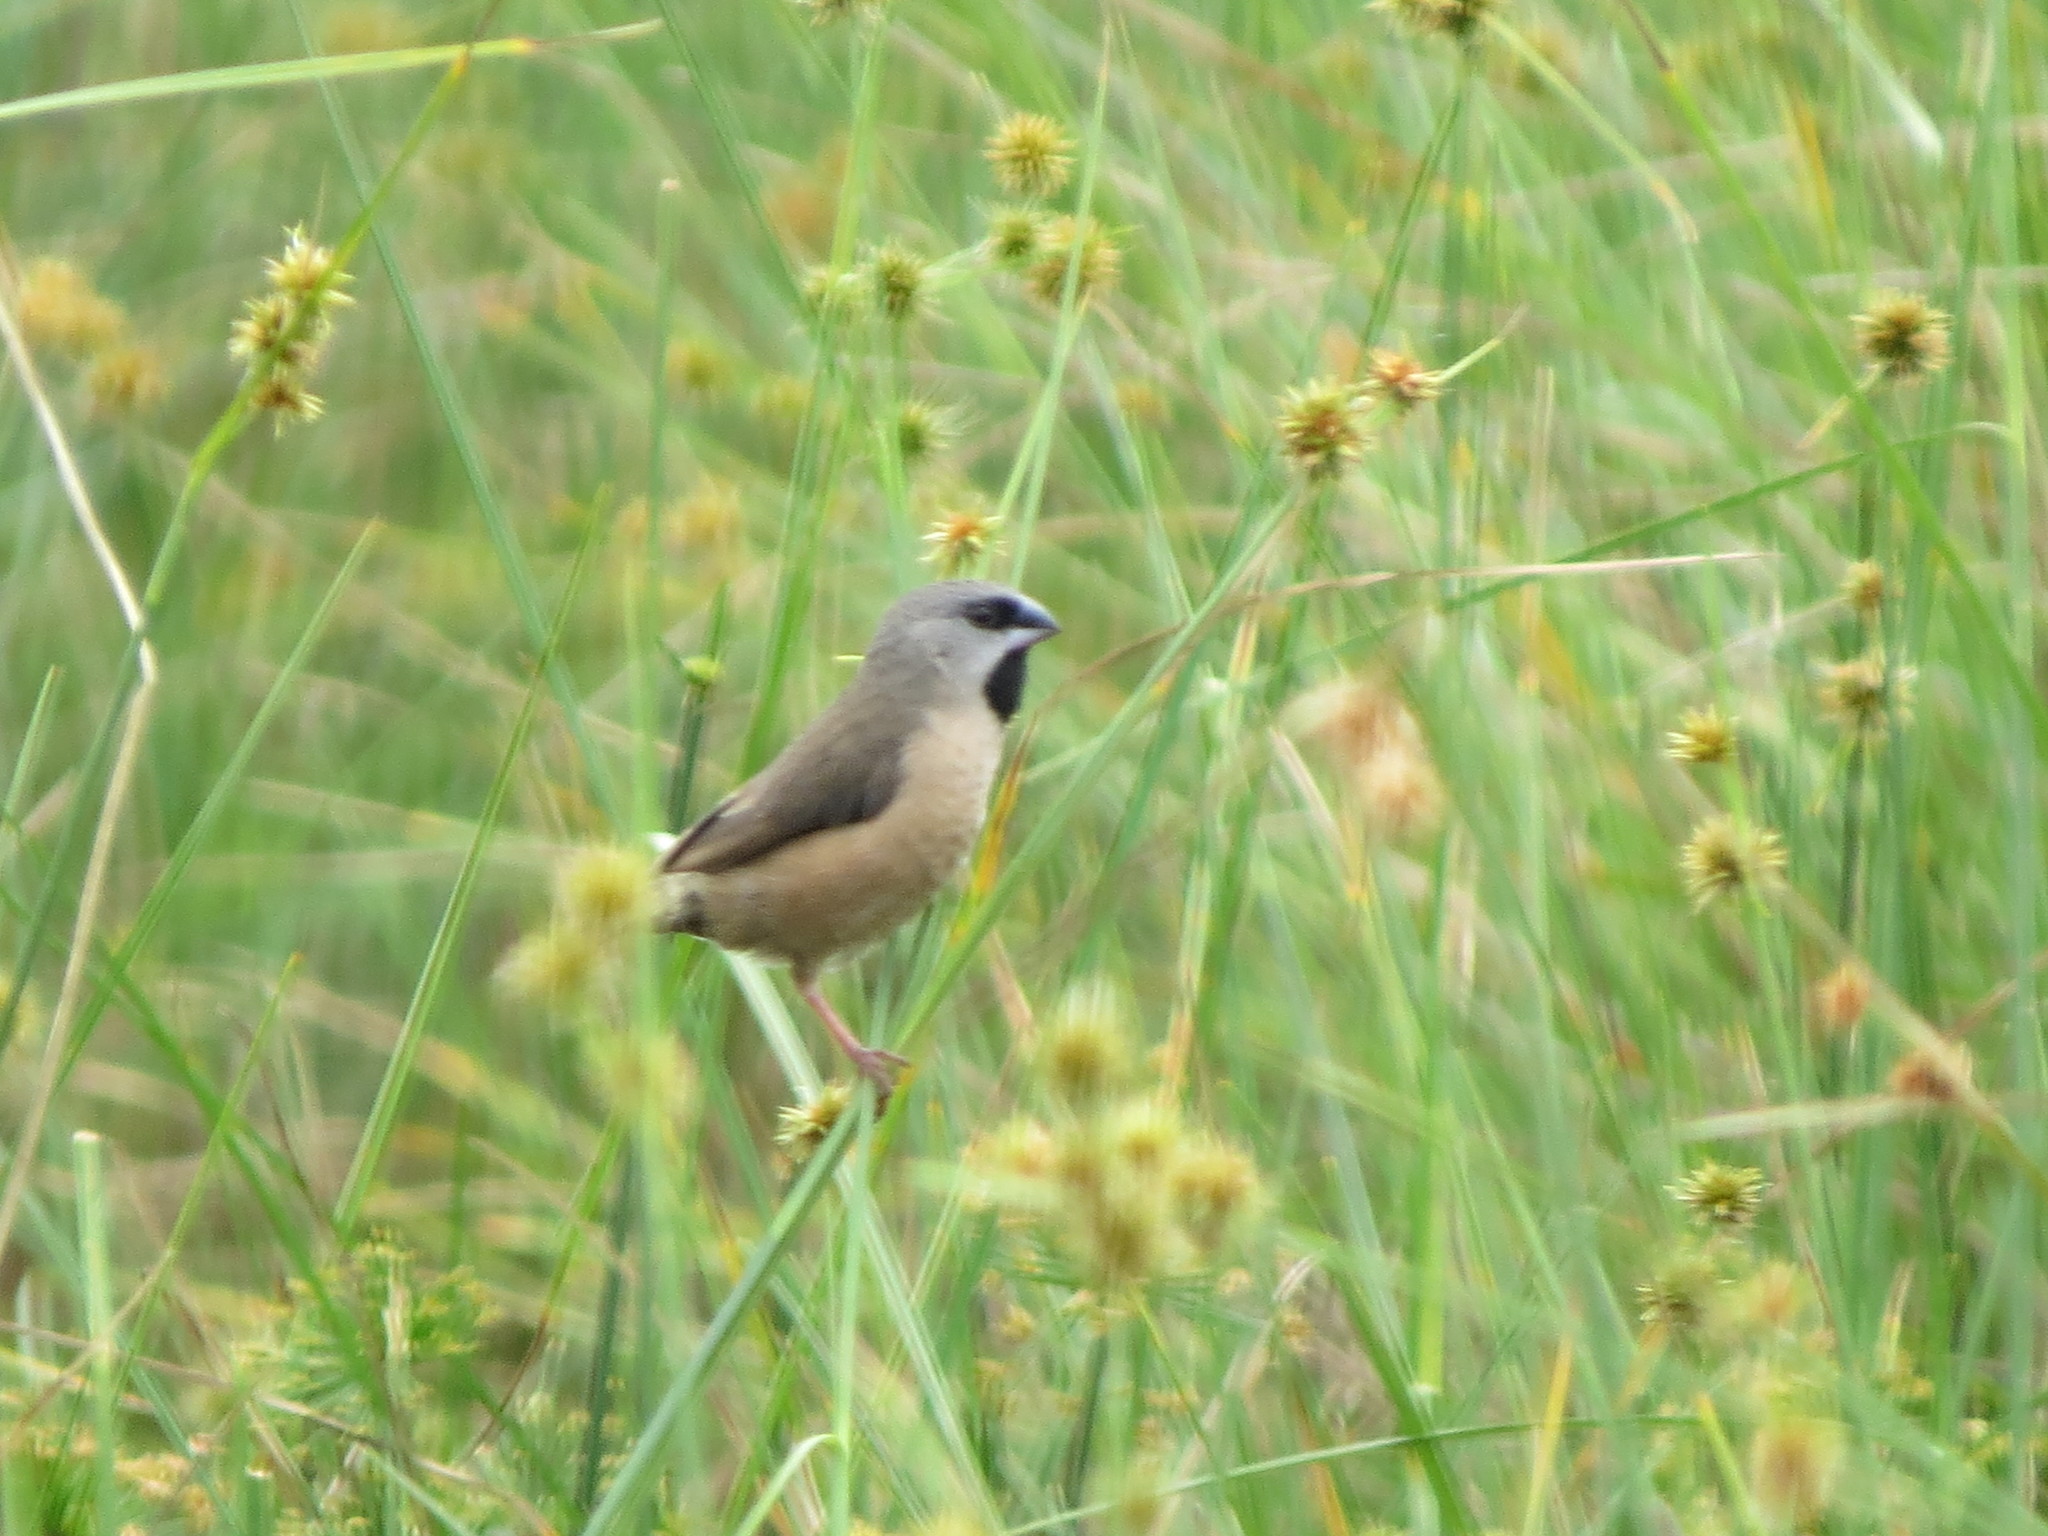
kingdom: Animalia
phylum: Chordata
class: Aves
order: Passeriformes
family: Estrildidae
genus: Lemuresthes
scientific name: Lemuresthes nana
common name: Madagascar mannikin
